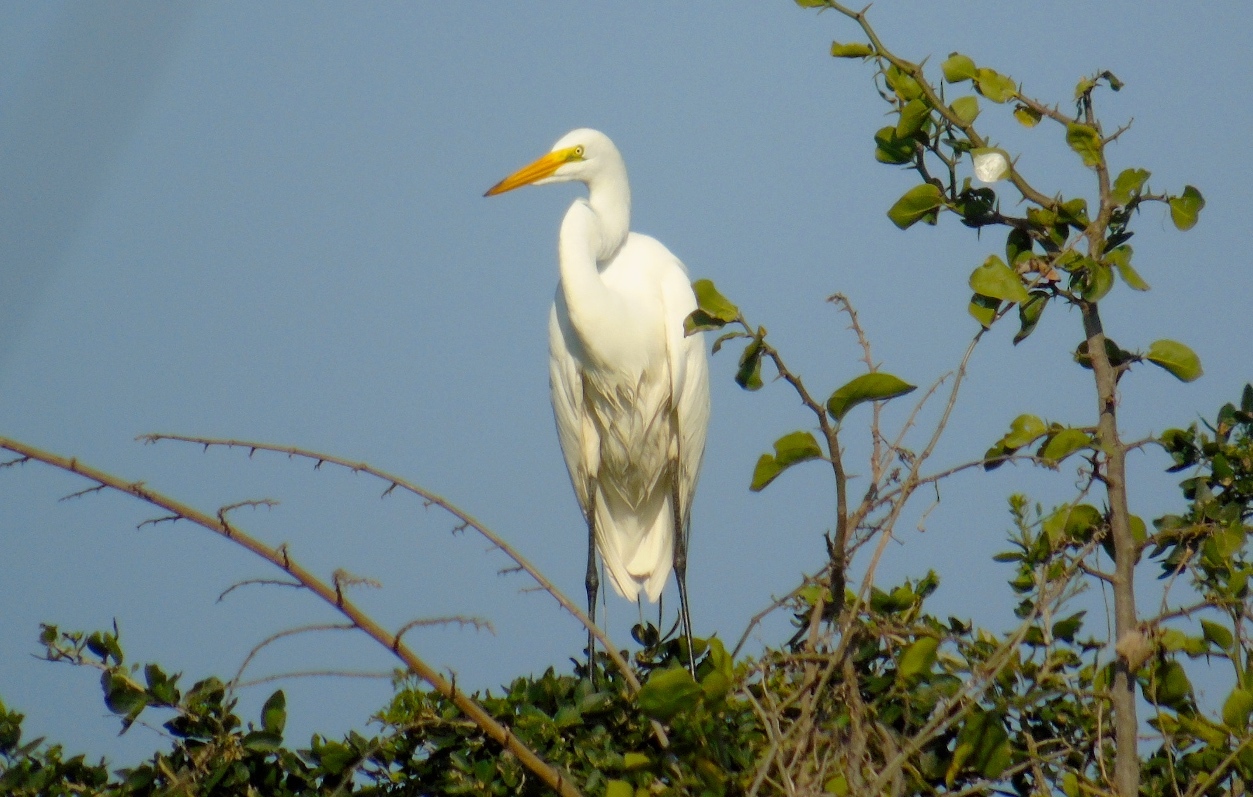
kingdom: Animalia
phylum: Chordata
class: Aves
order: Pelecaniformes
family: Ardeidae
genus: Ardea
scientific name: Ardea alba
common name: Great egret
